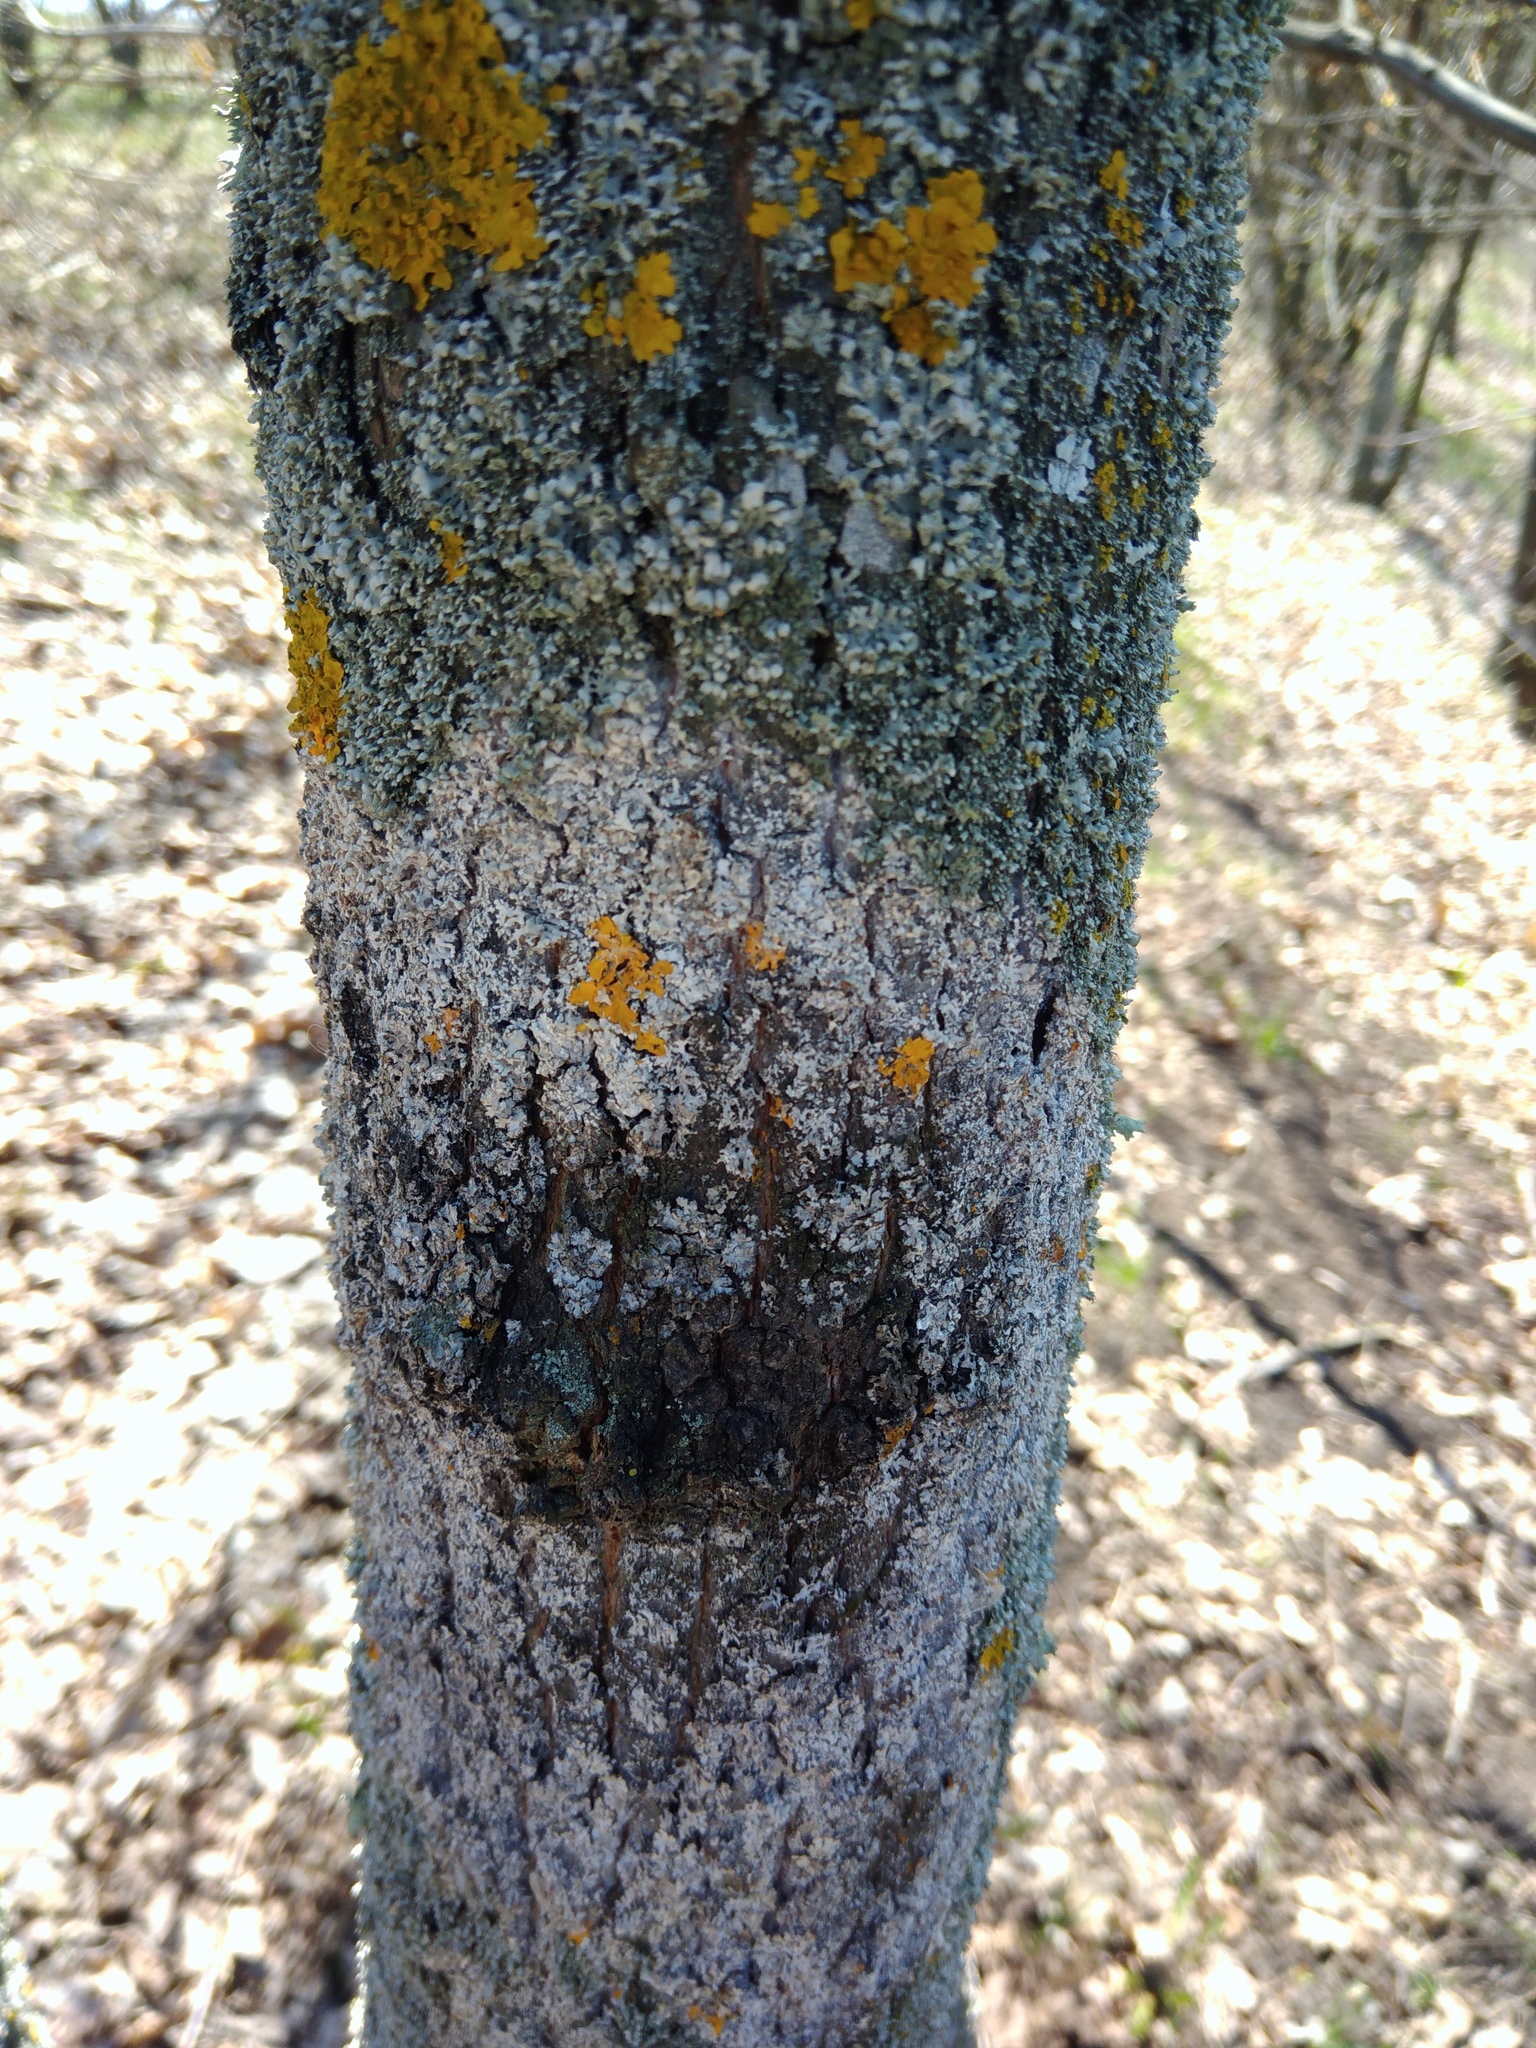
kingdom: Fungi
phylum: Basidiomycota
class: Agaricomycetes
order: Atheliales
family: Atheliaceae
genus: Athelia
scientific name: Athelia arachnoidea
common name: Candelabra duster
